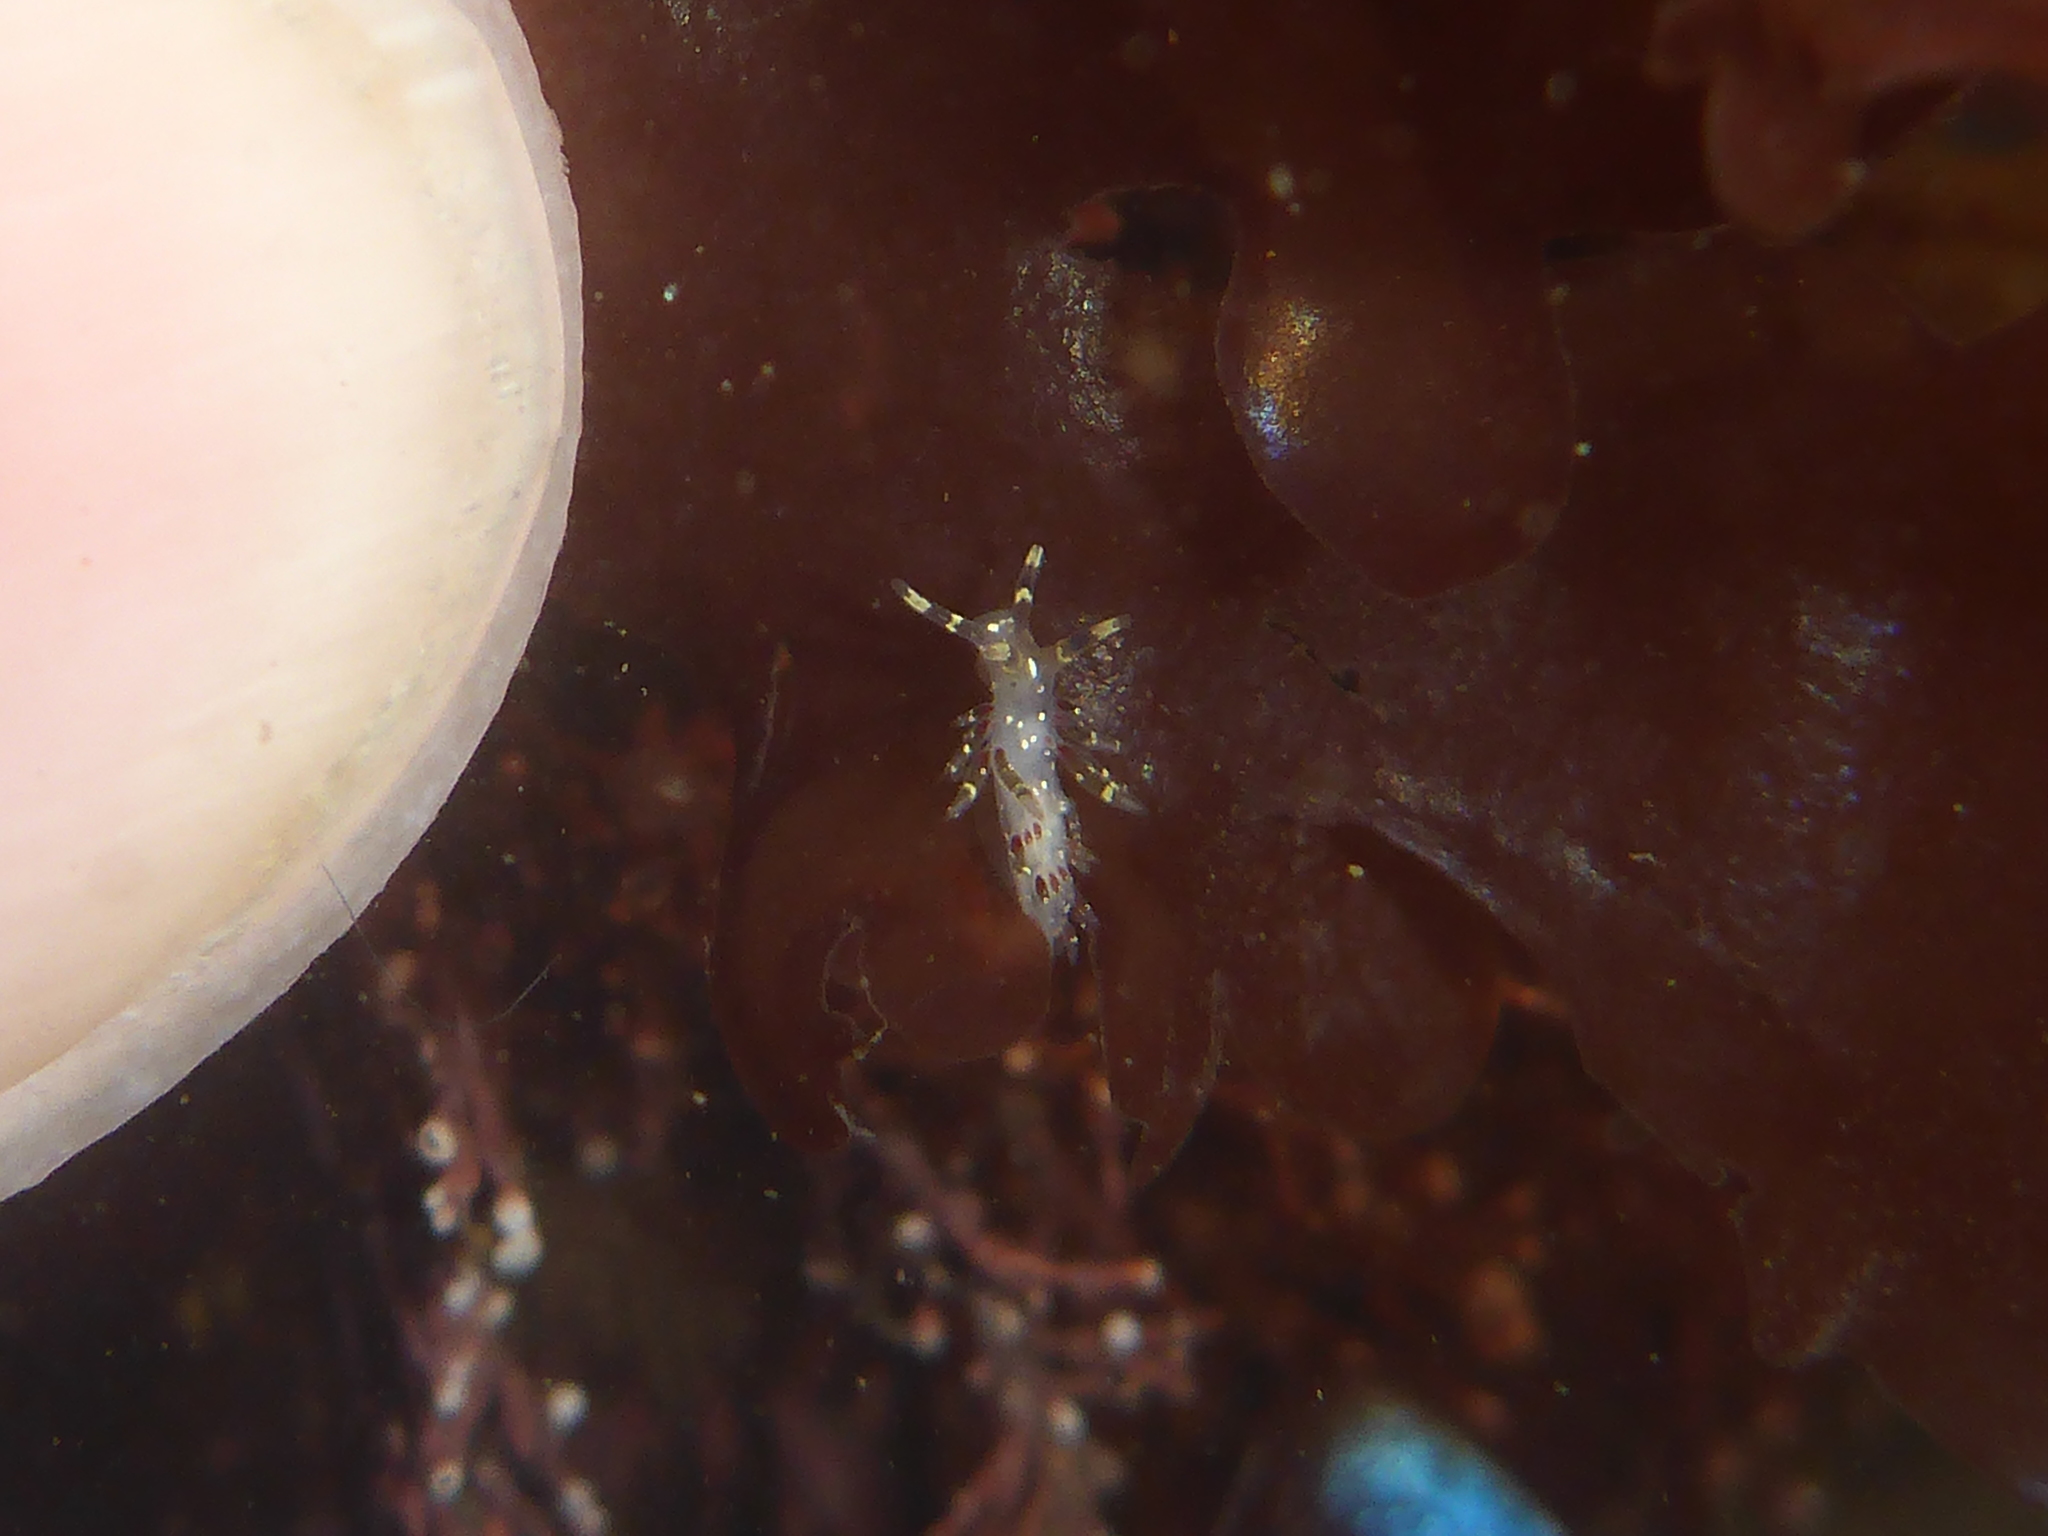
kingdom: Animalia
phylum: Mollusca
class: Gastropoda
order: Nudibranchia
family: Abronicidae
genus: Abronica
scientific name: Abronica abronia
